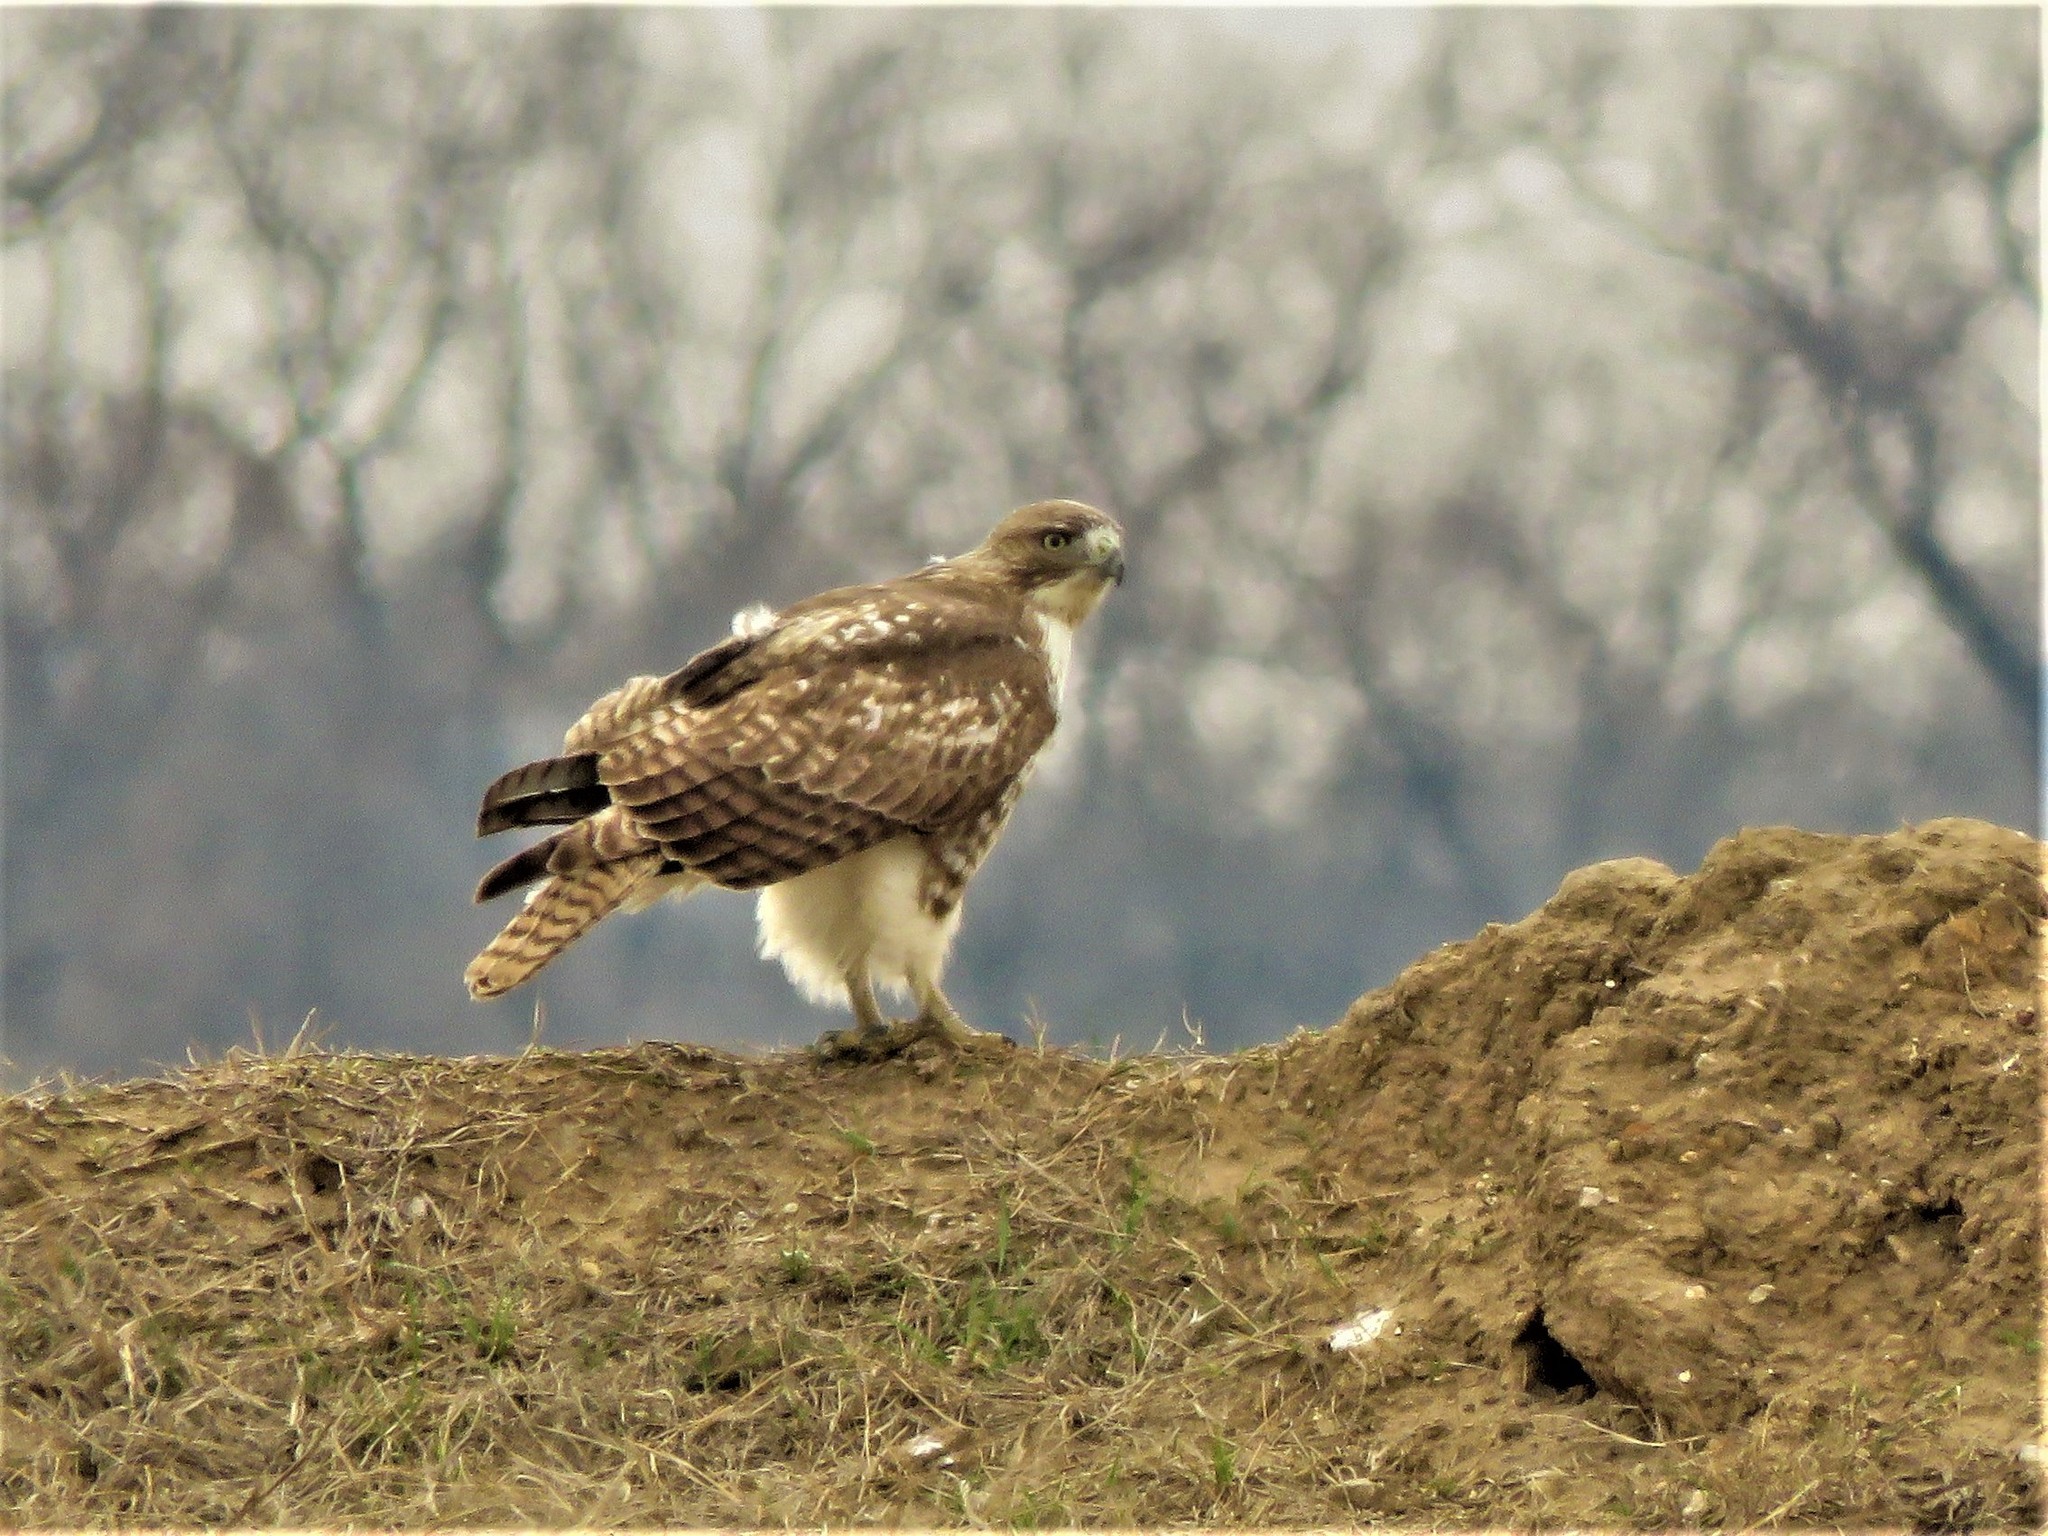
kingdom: Animalia
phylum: Chordata
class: Aves
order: Accipitriformes
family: Accipitridae
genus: Buteo
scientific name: Buteo jamaicensis
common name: Red-tailed hawk
